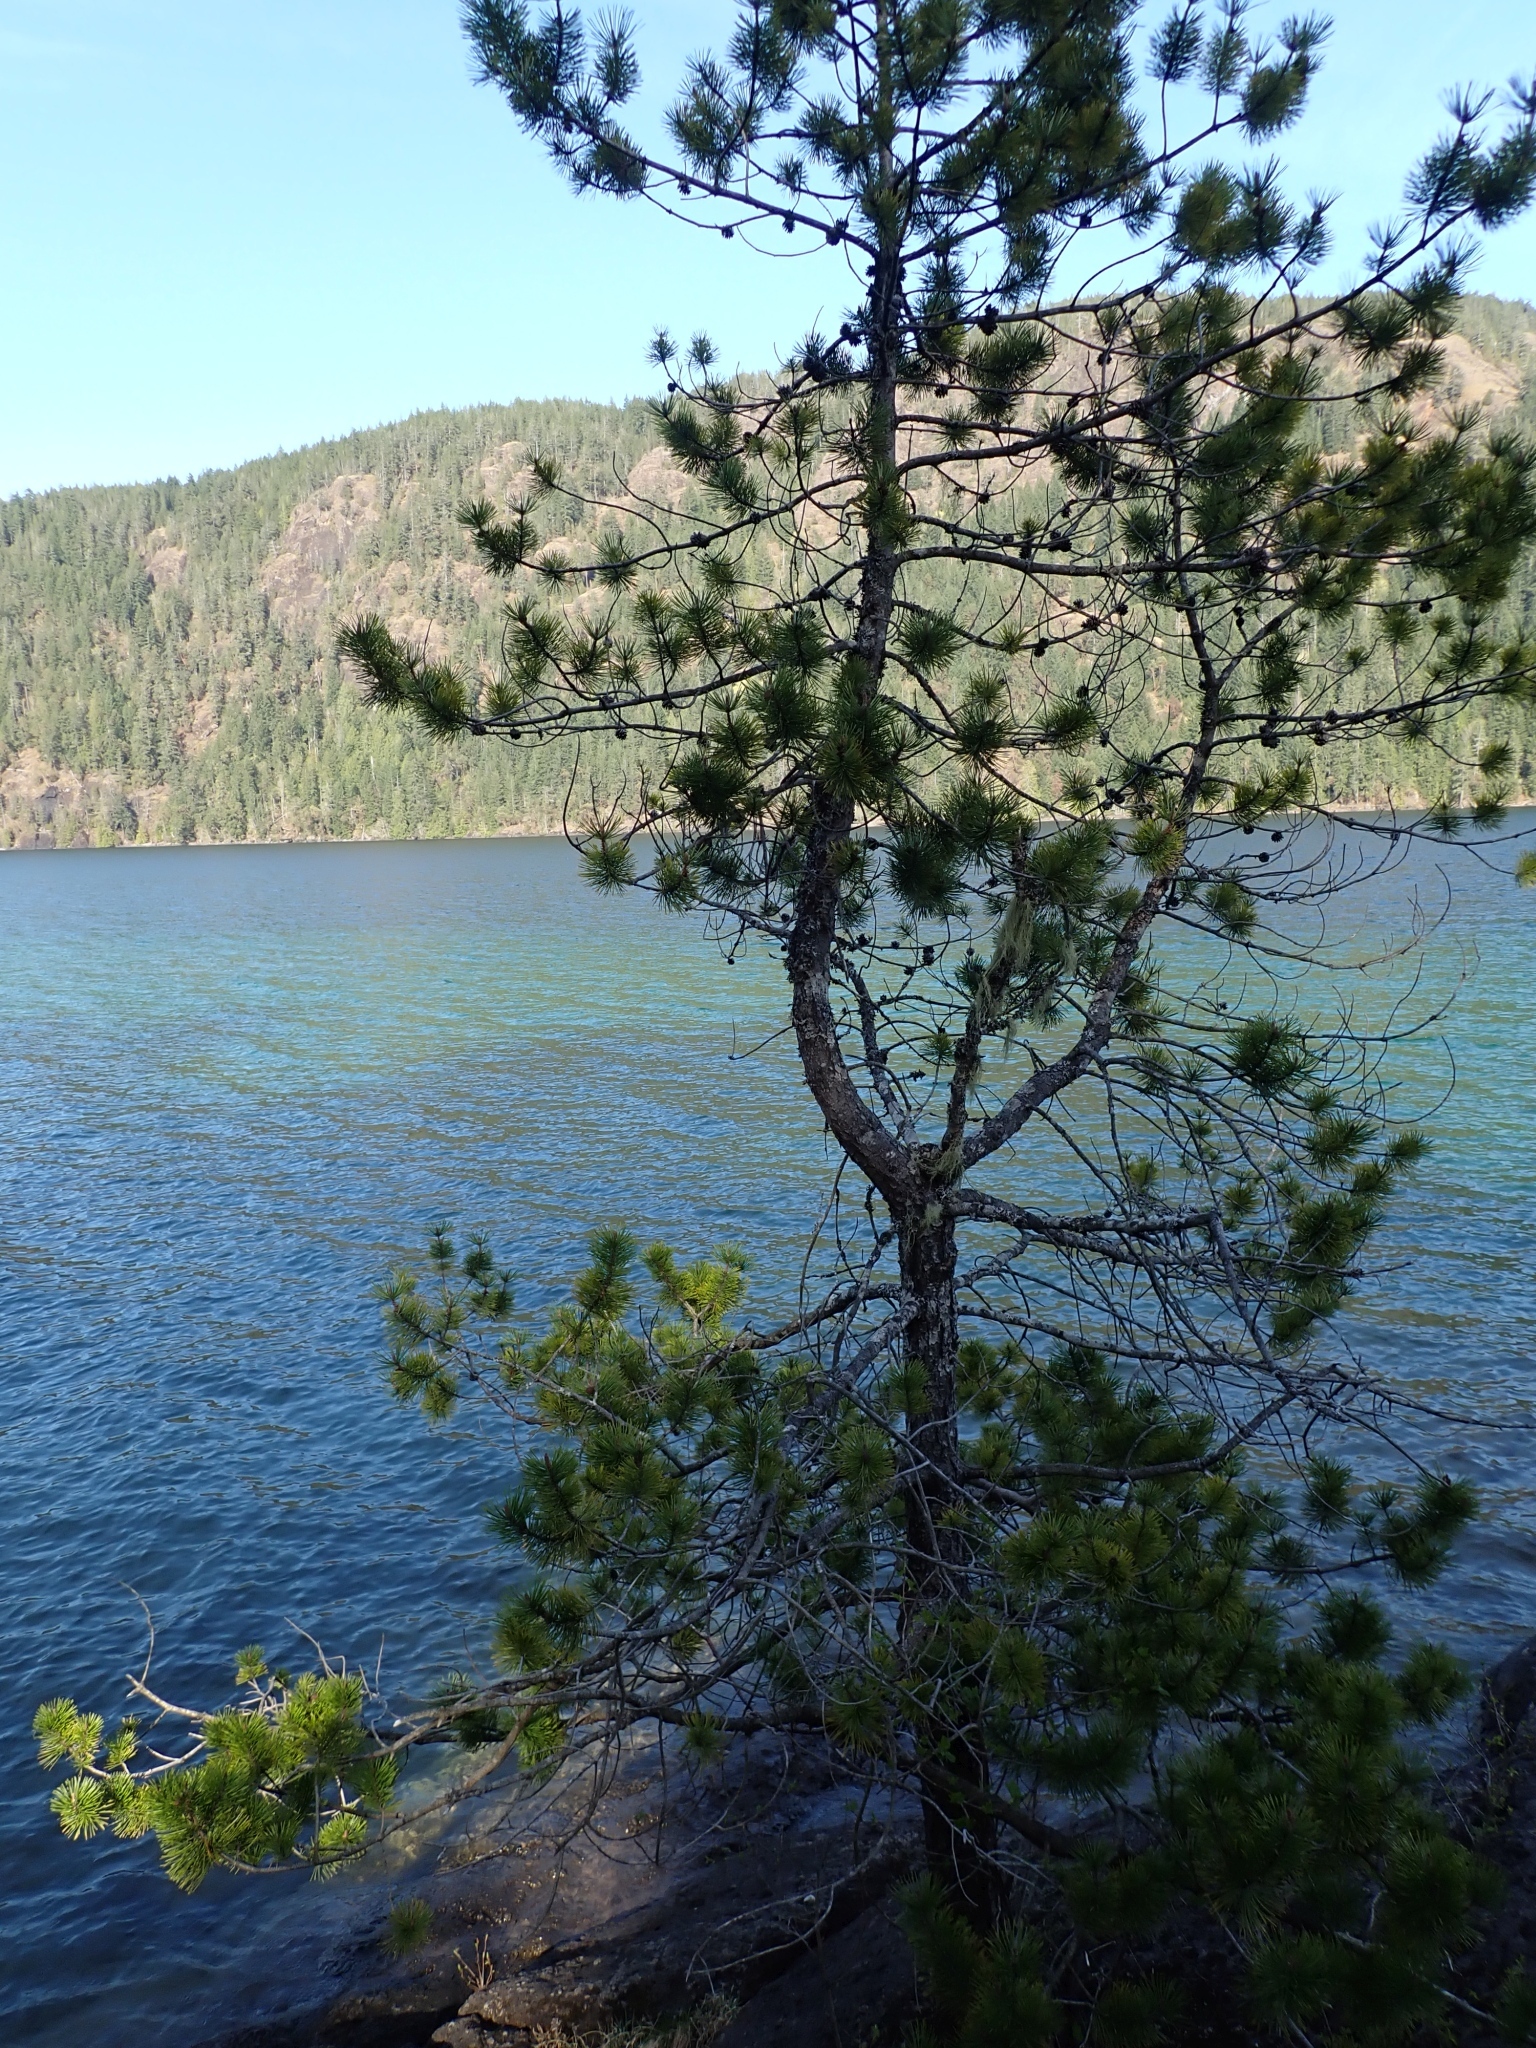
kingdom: Plantae
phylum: Tracheophyta
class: Pinopsida
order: Pinales
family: Pinaceae
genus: Pinus
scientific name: Pinus contorta
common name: Lodgepole pine
